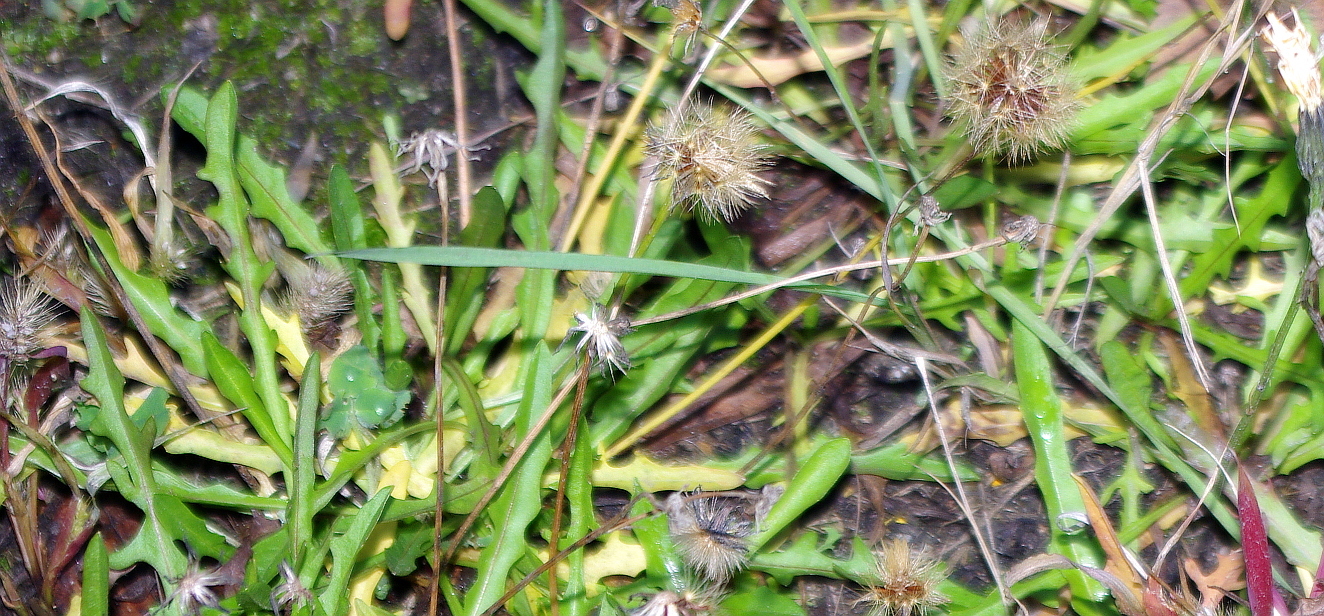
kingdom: Plantae
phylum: Tracheophyta
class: Magnoliopsida
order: Asterales
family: Asteraceae
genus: Scorzoneroides
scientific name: Scorzoneroides autumnalis
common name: Autumn hawkbit
